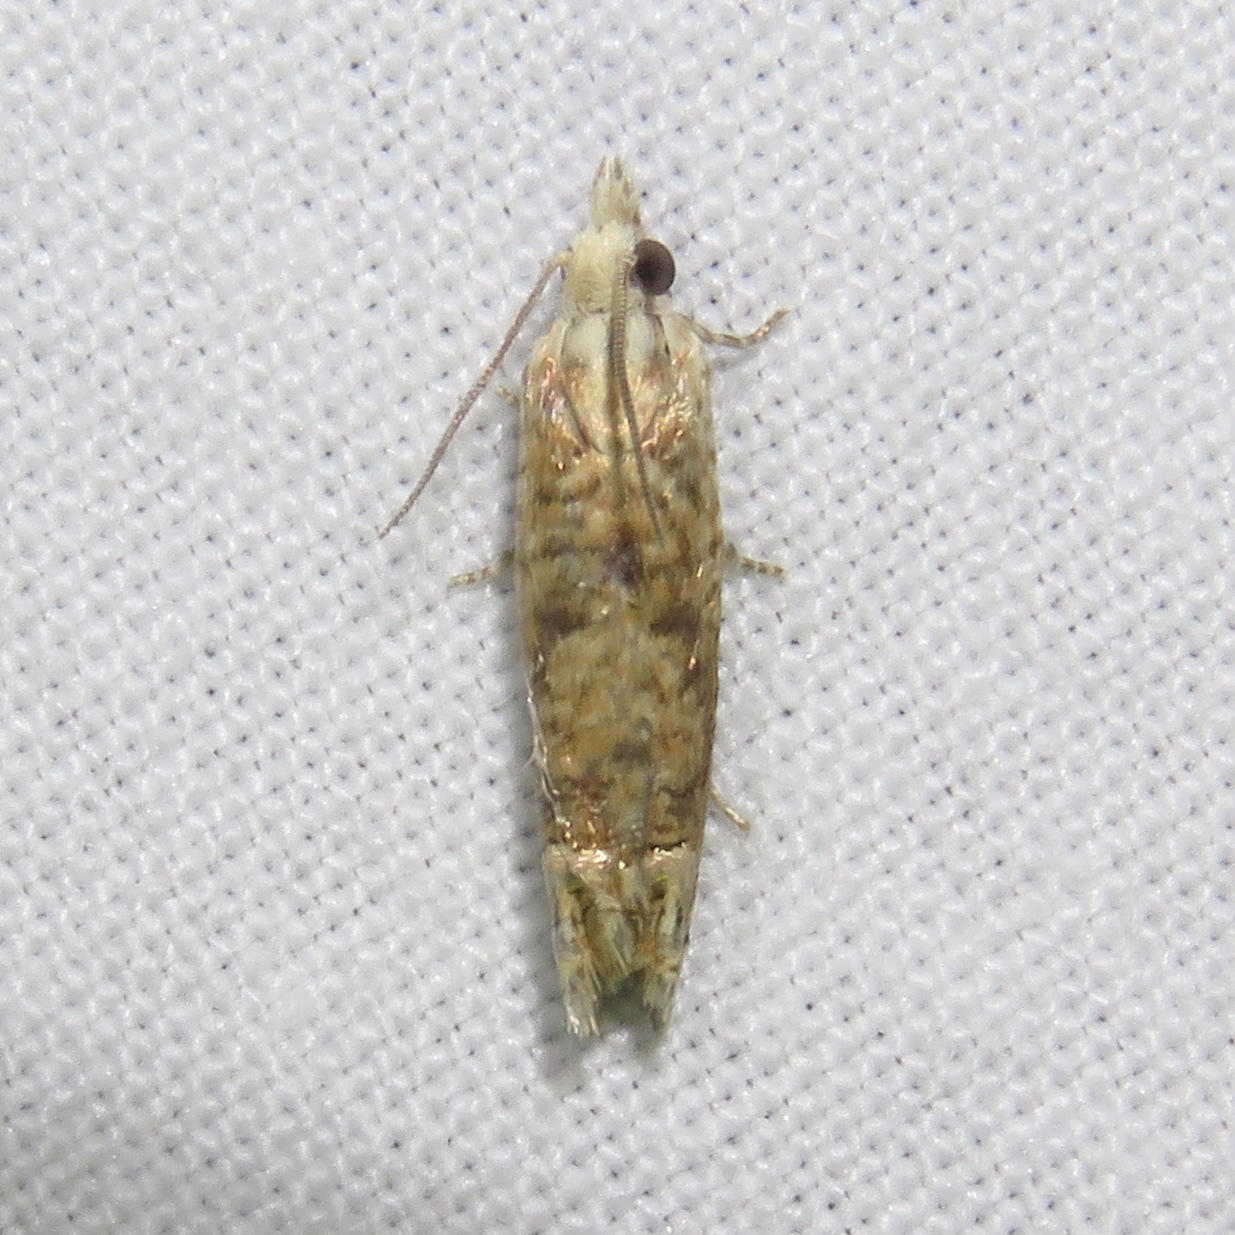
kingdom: Animalia
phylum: Arthropoda
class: Insecta
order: Lepidoptera
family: Tortricidae
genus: Eucosma
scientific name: Eucosma ochrocephala
